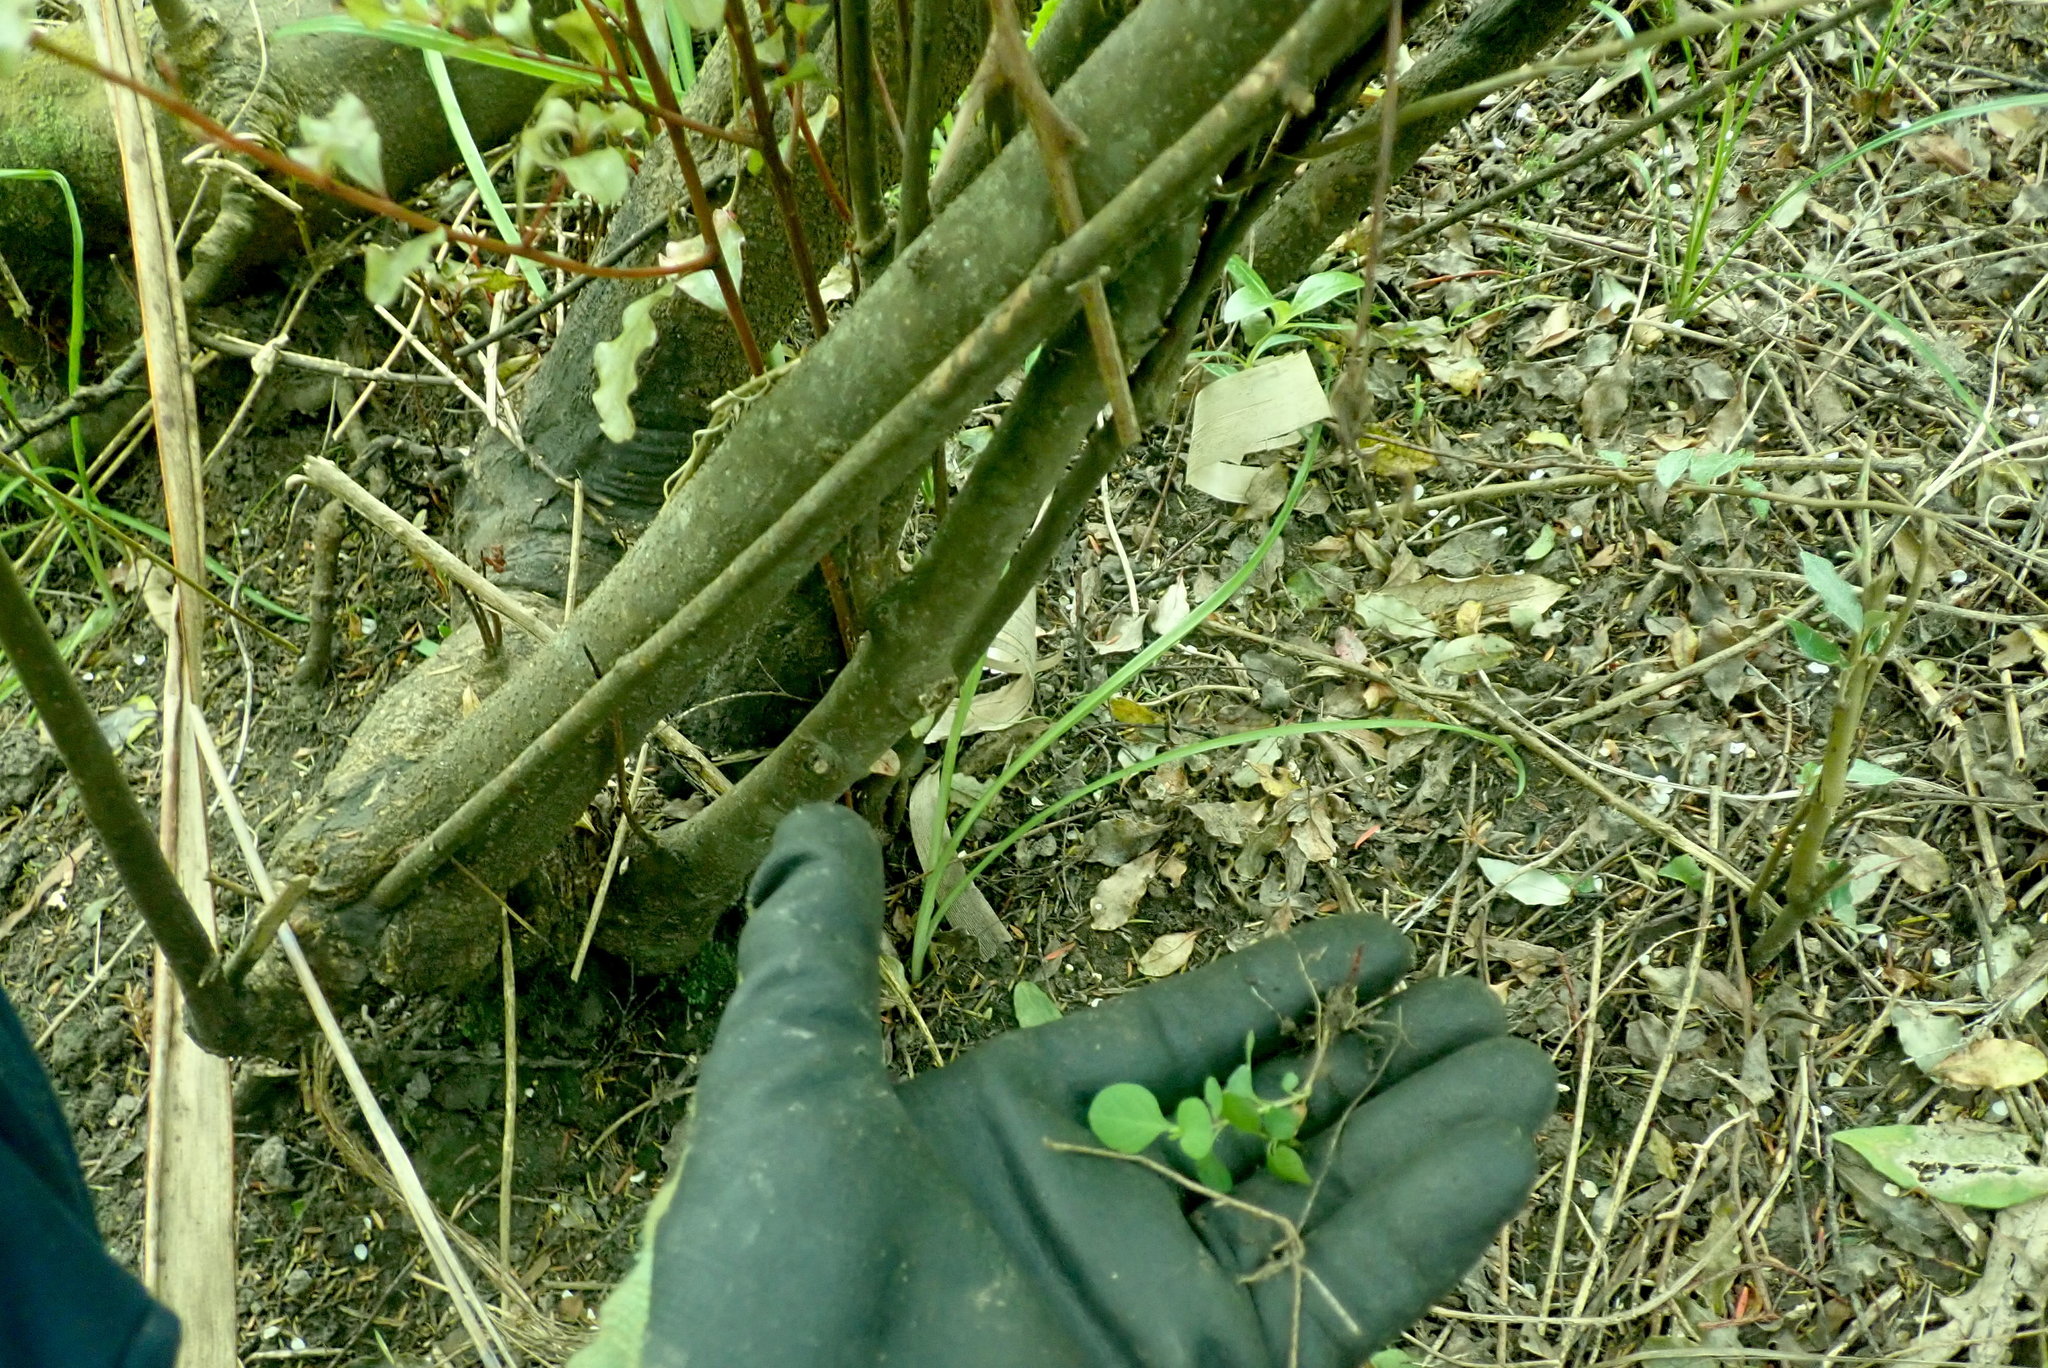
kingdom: Plantae
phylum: Tracheophyta
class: Magnoliopsida
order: Dipsacales
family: Caprifoliaceae
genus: Lonicera
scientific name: Lonicera japonica
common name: Japanese honeysuckle
